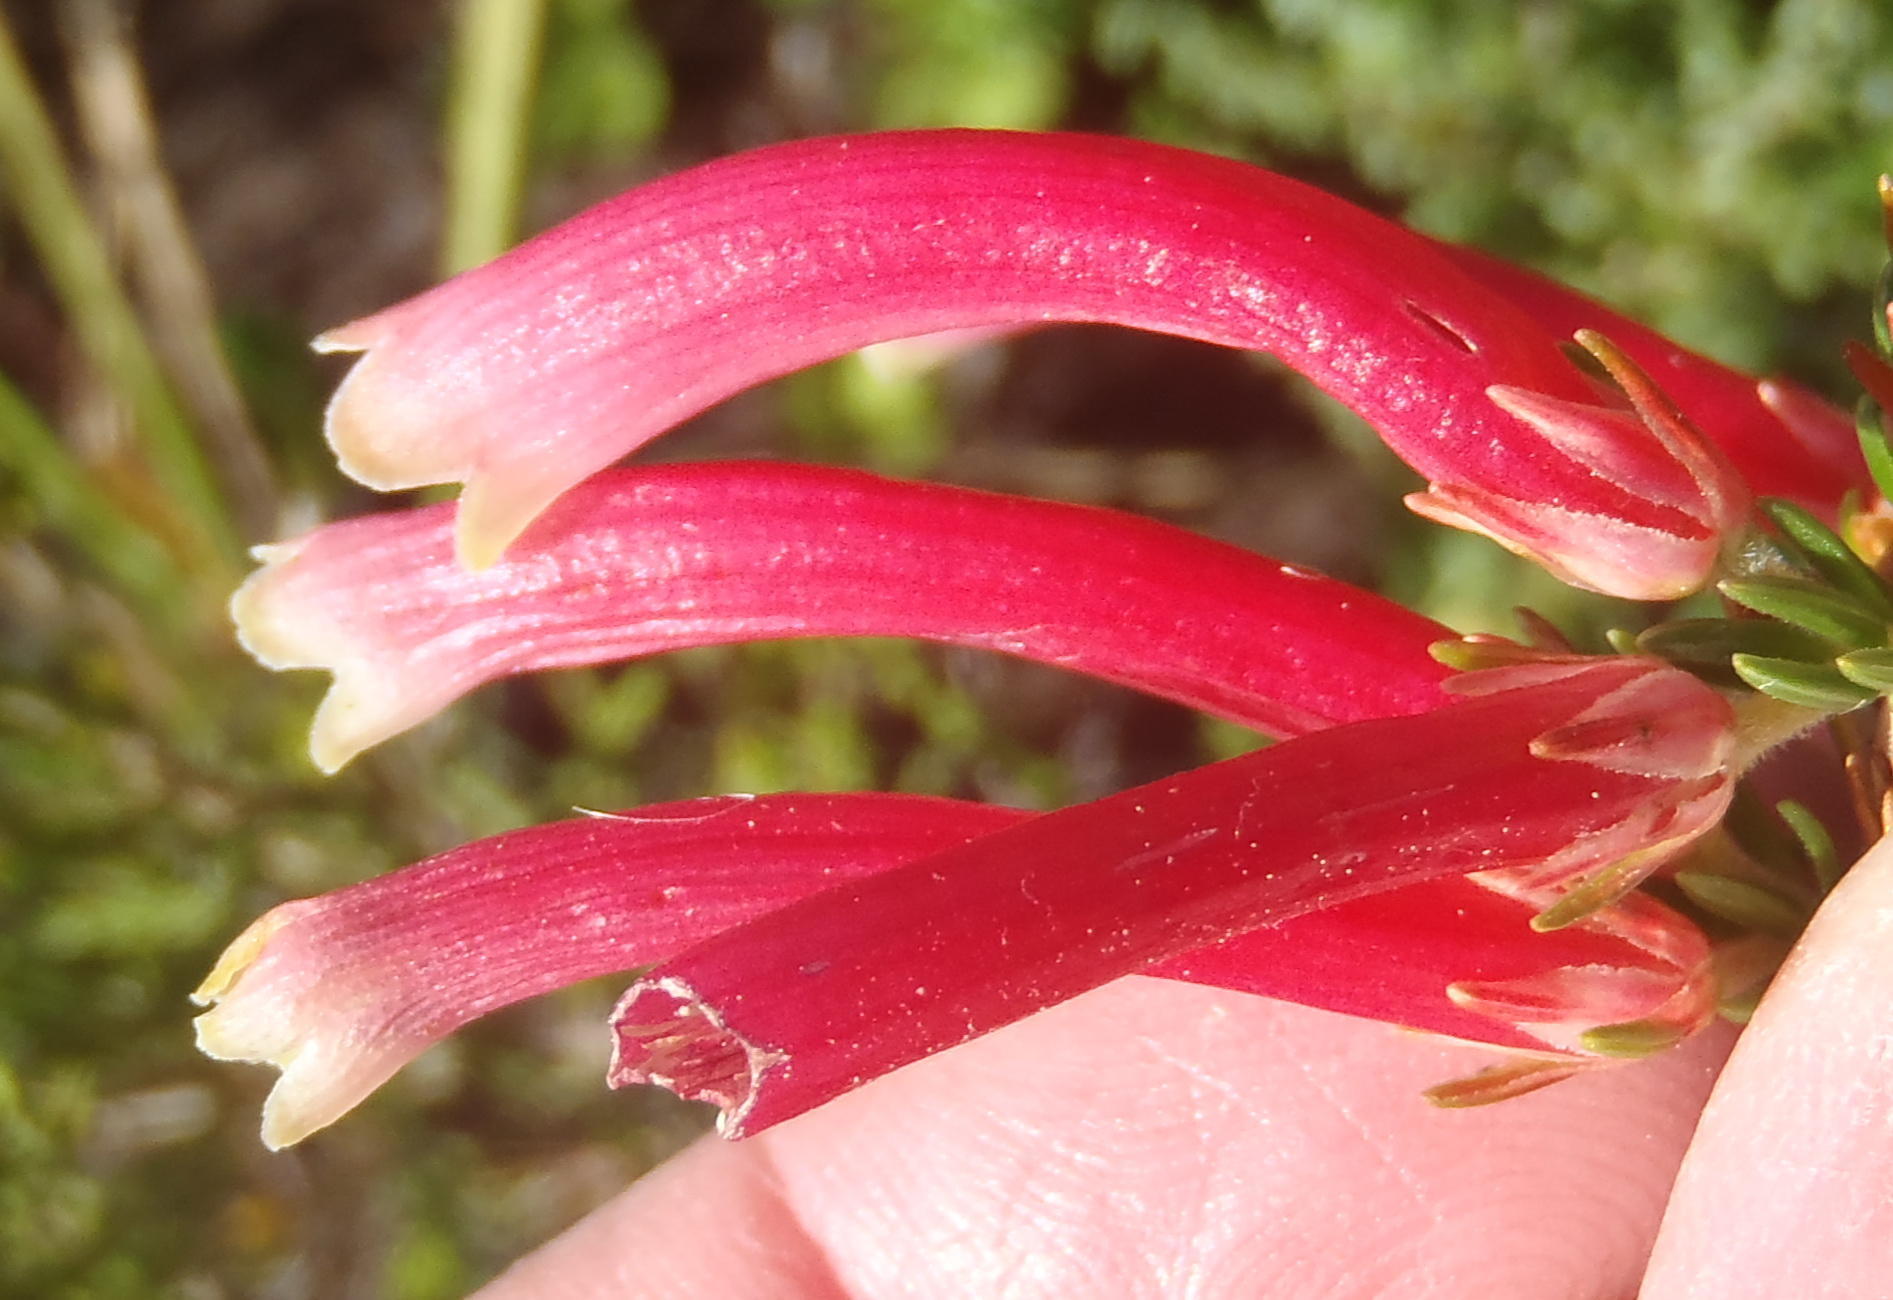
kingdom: Plantae
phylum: Tracheophyta
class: Magnoliopsida
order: Ericales
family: Ericaceae
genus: Erica
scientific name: Erica discolor
